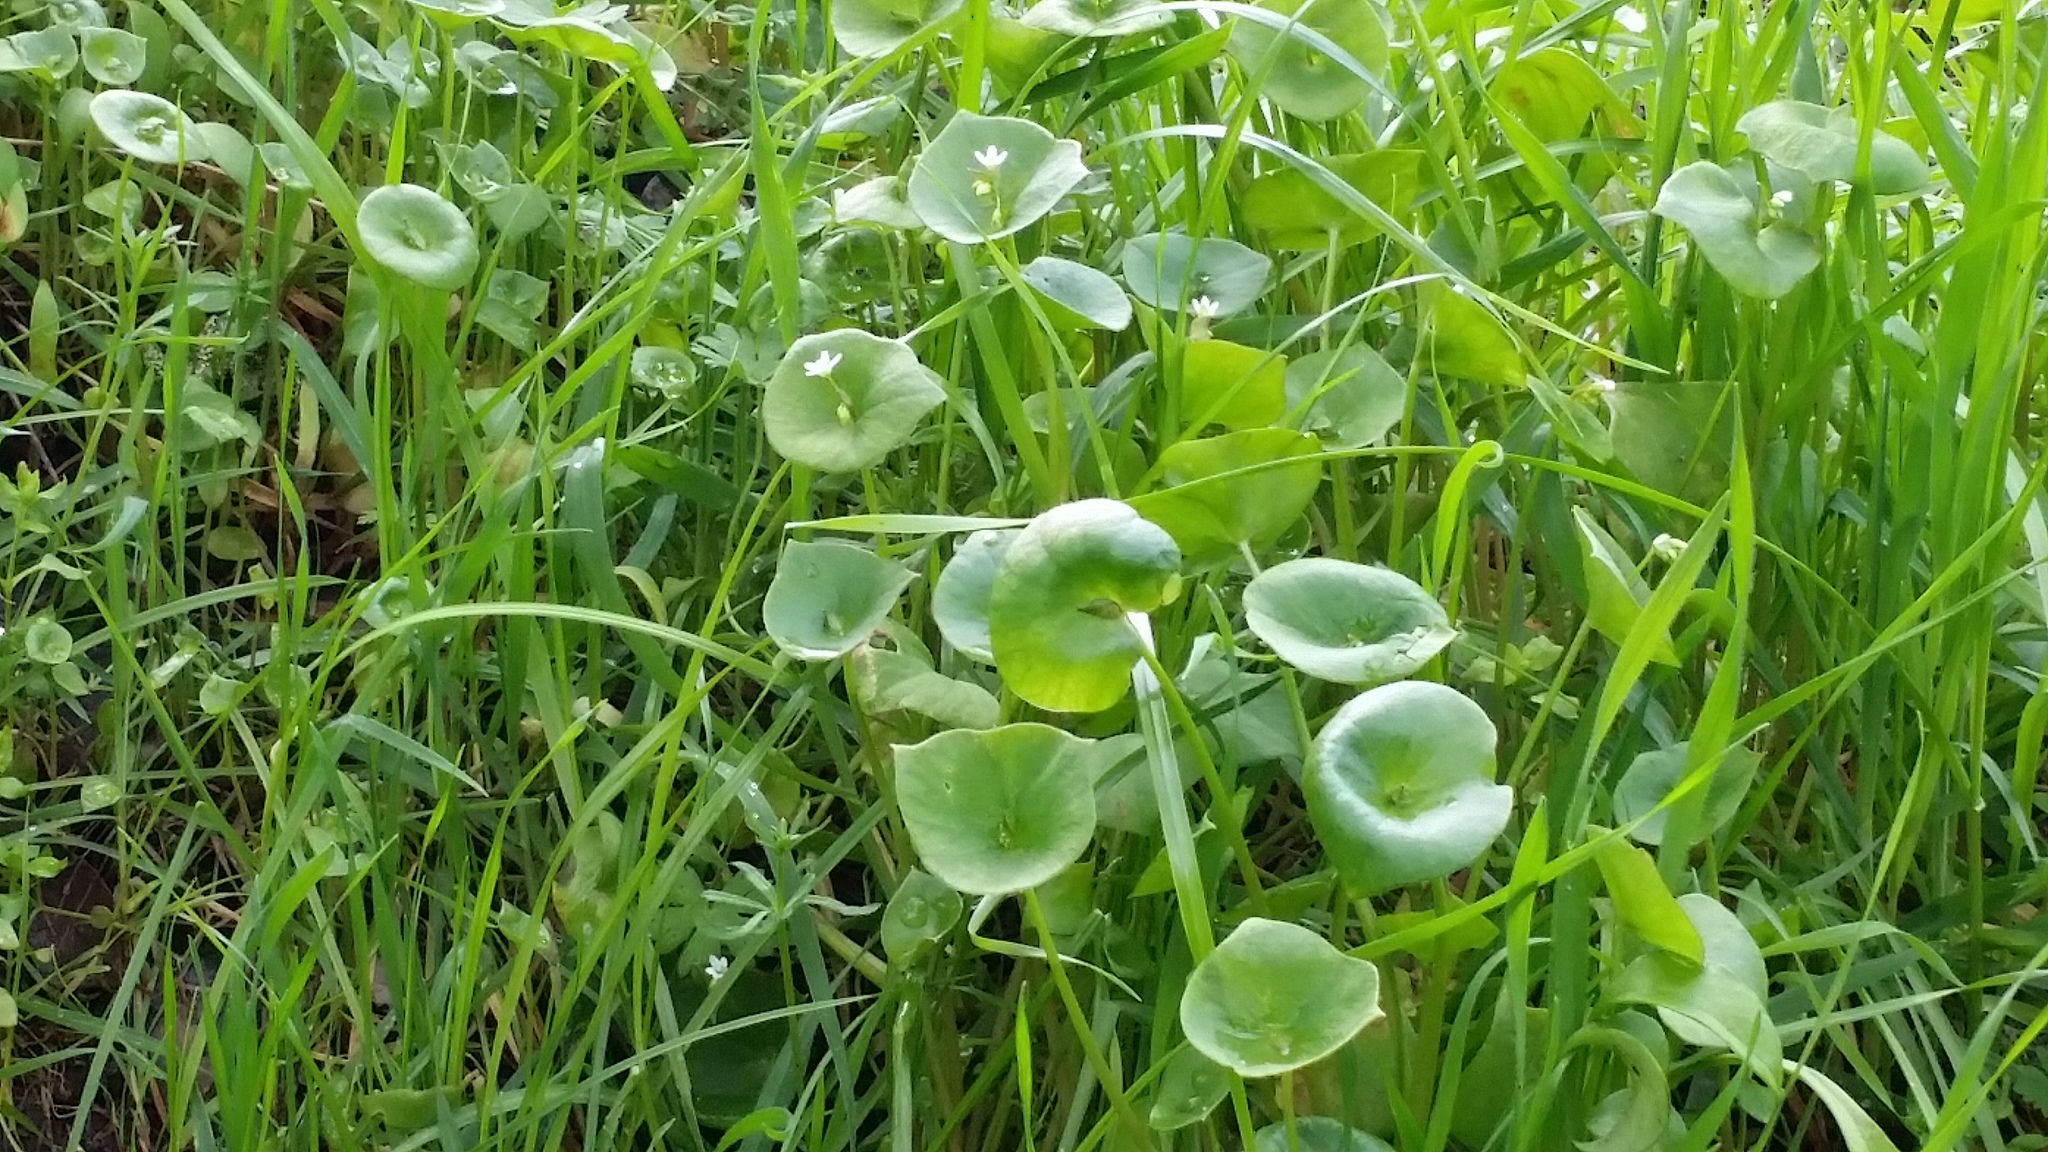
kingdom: Plantae
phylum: Tracheophyta
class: Magnoliopsida
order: Caryophyllales
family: Montiaceae
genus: Claytonia
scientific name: Claytonia perfoliata
